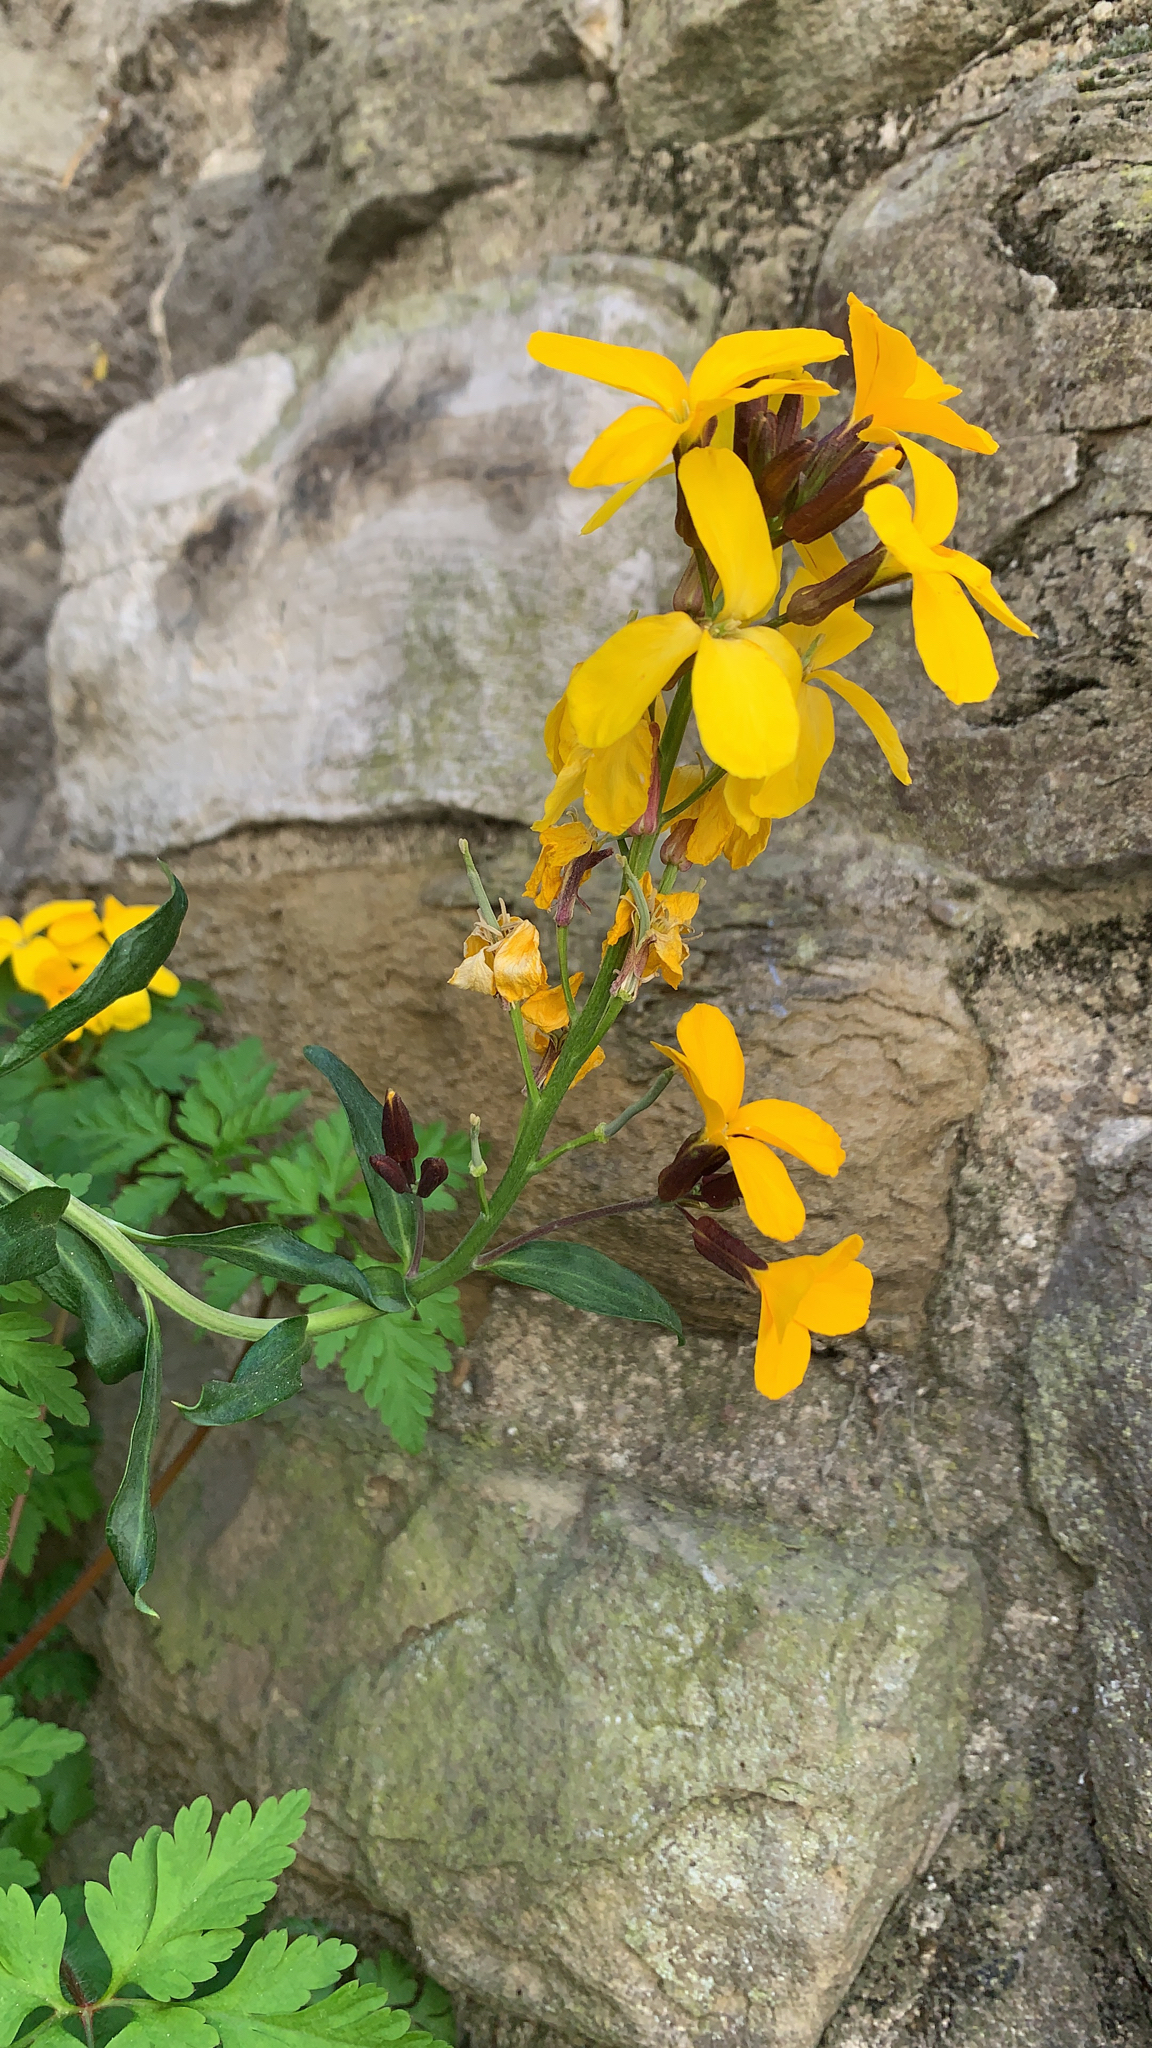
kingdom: Plantae
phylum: Tracheophyta
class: Magnoliopsida
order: Brassicales
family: Brassicaceae
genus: Erysimum
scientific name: Erysimum cheiri
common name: Wallflower
